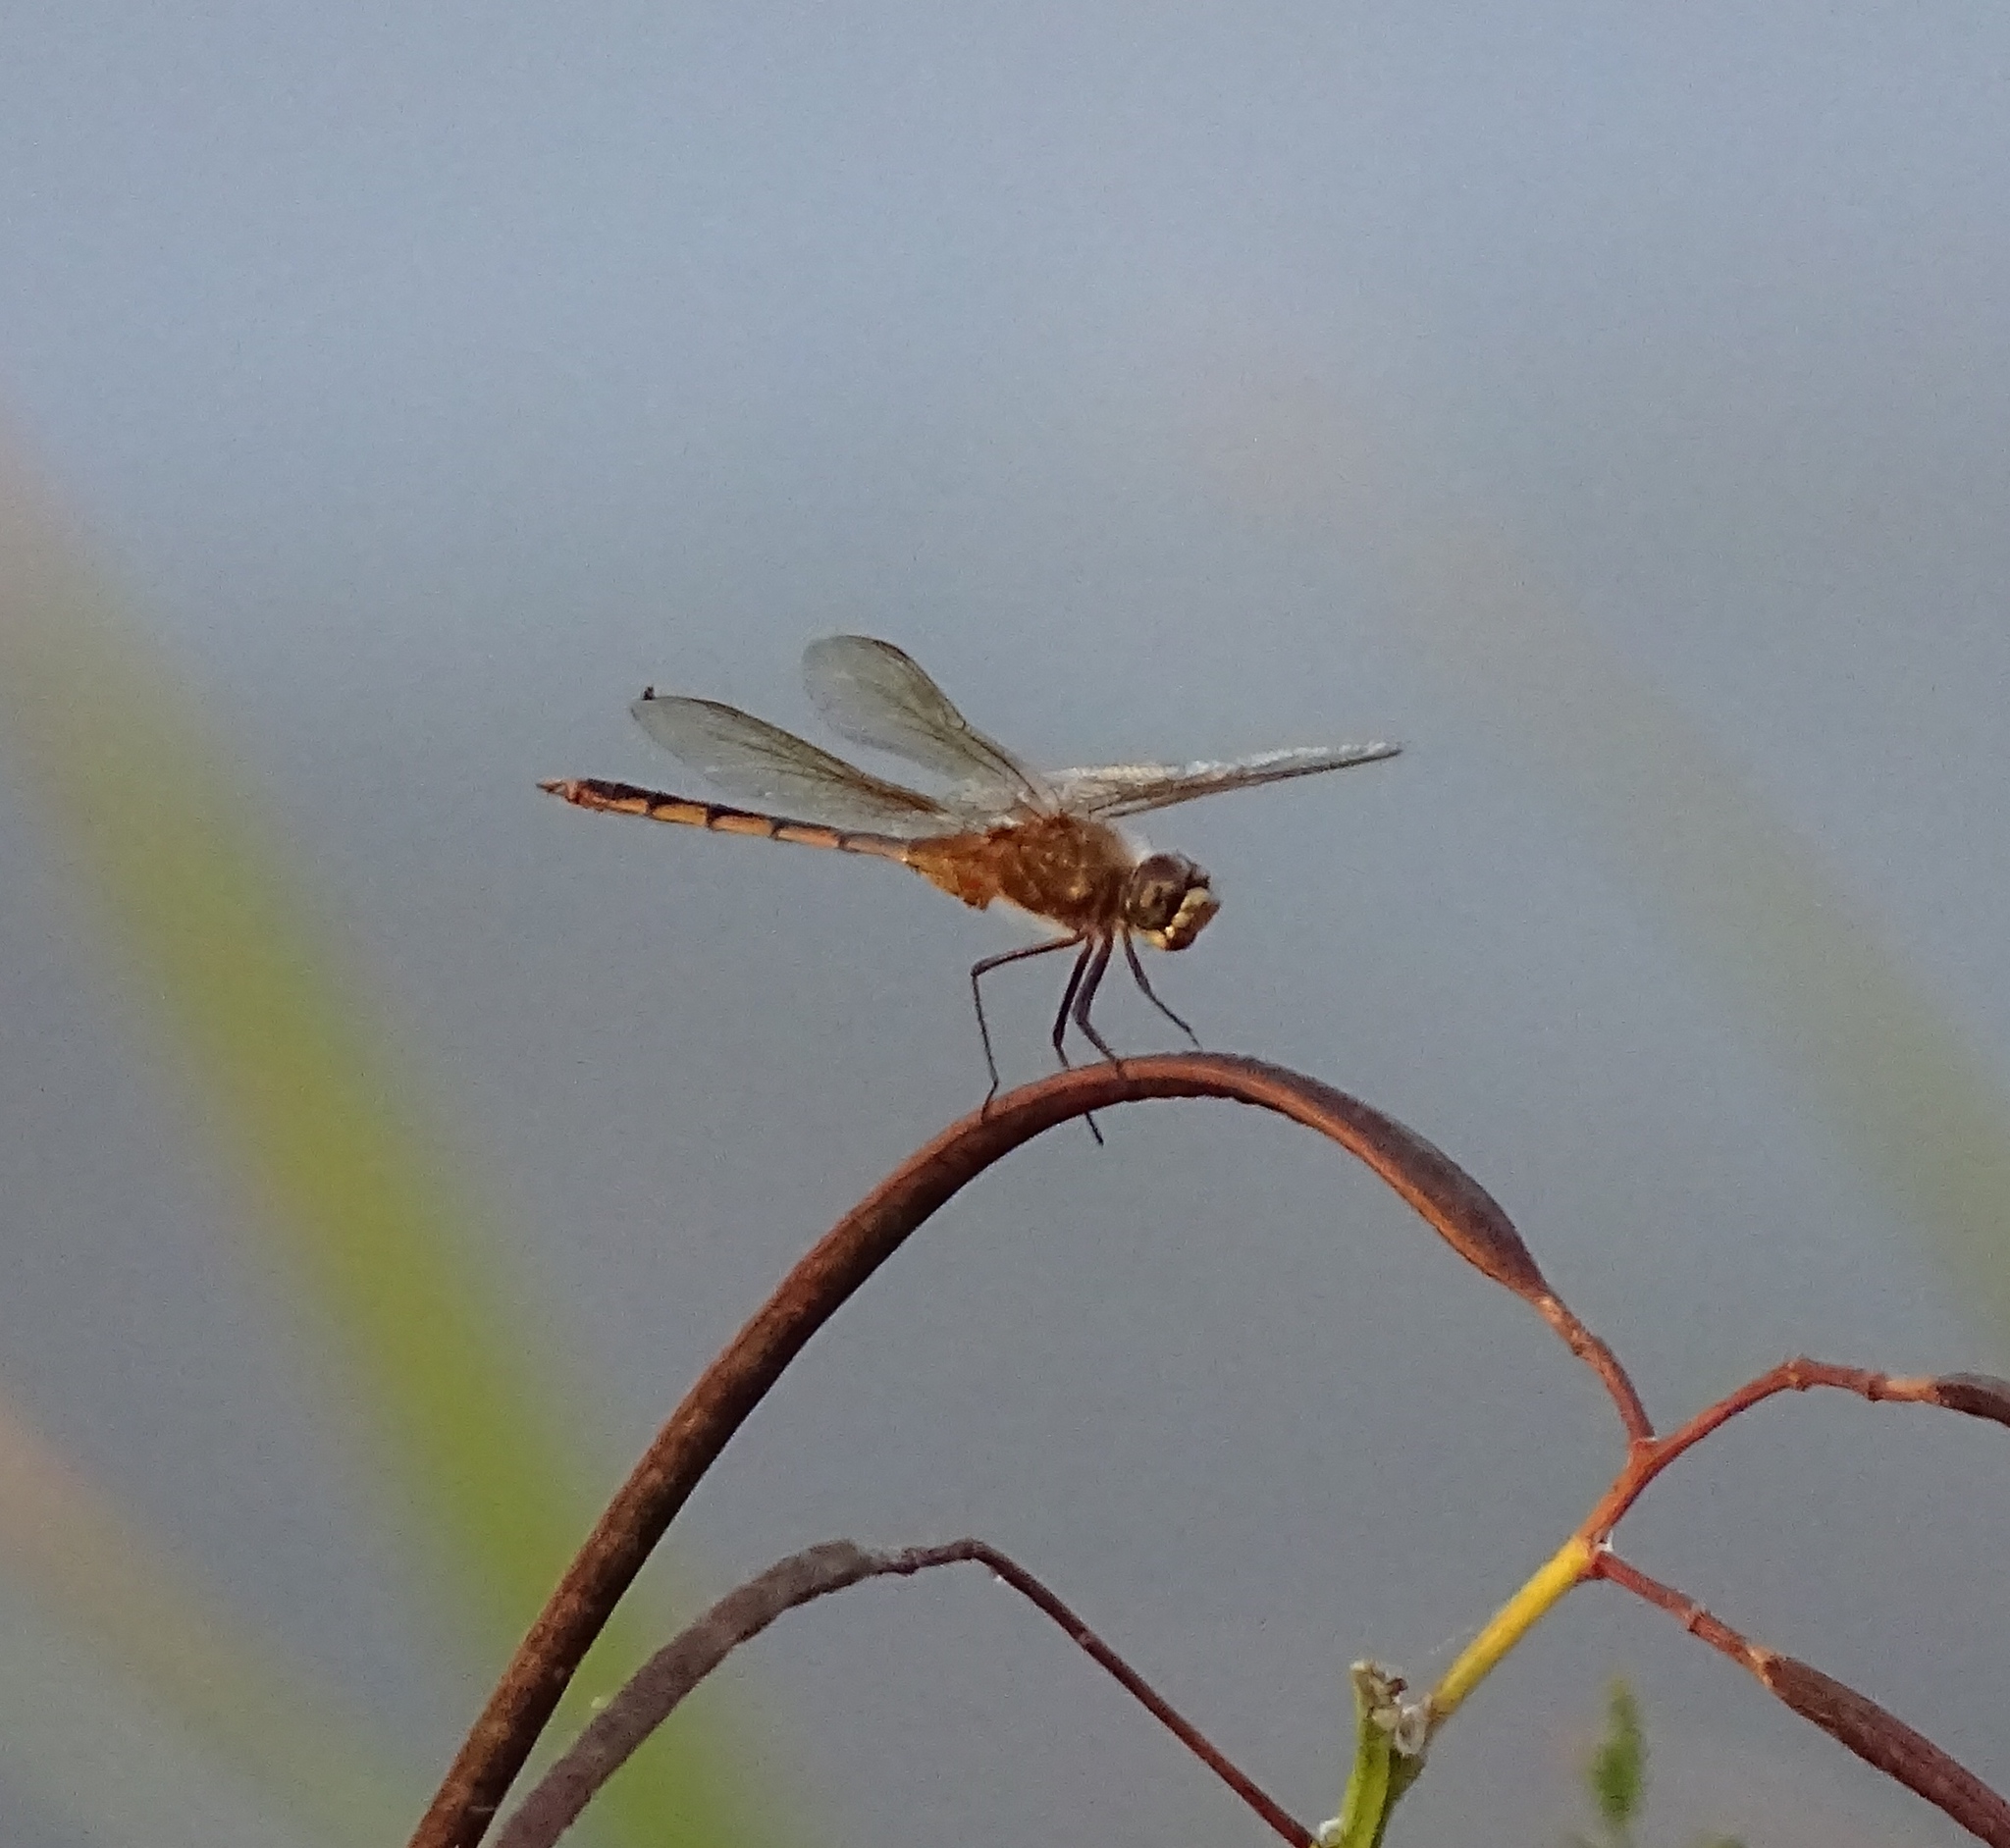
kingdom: Animalia
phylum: Arthropoda
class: Insecta
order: Odonata
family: Libellulidae
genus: Brachymesia
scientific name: Brachymesia herbida
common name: Tawny pennant
